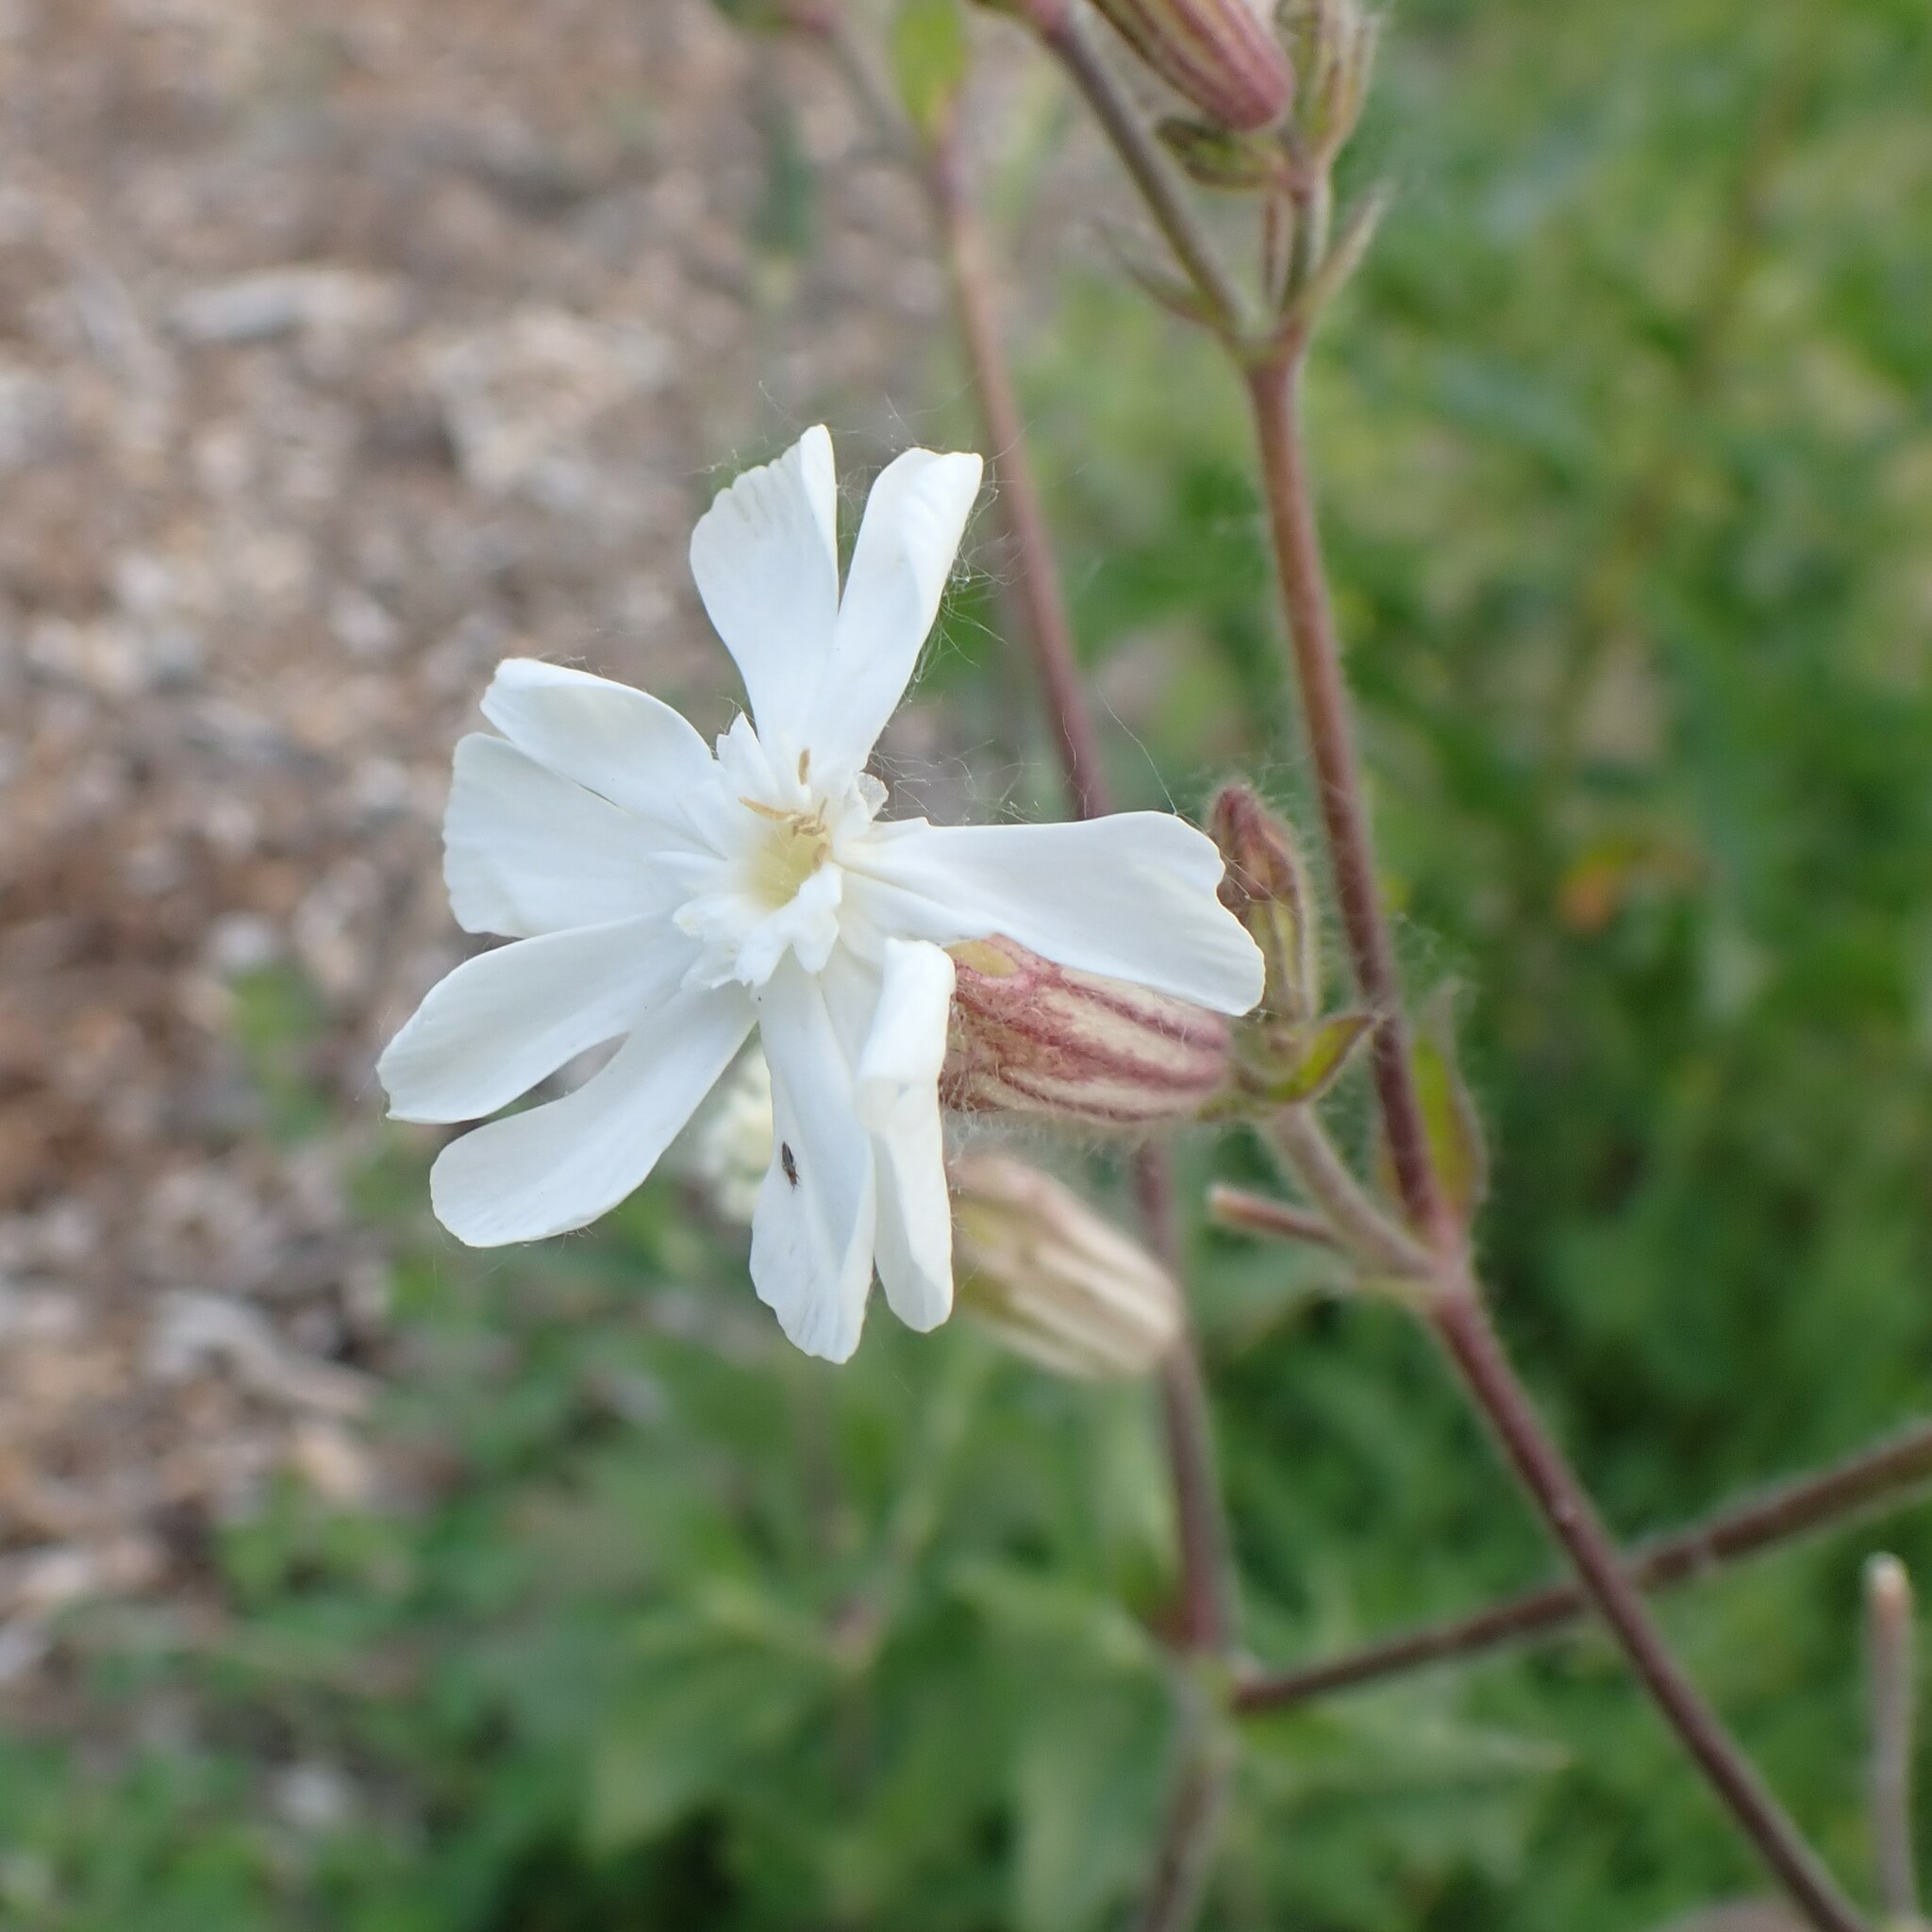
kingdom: Plantae
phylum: Tracheophyta
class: Magnoliopsida
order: Caryophyllales
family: Caryophyllaceae
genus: Silene
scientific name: Silene latifolia
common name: White campion
